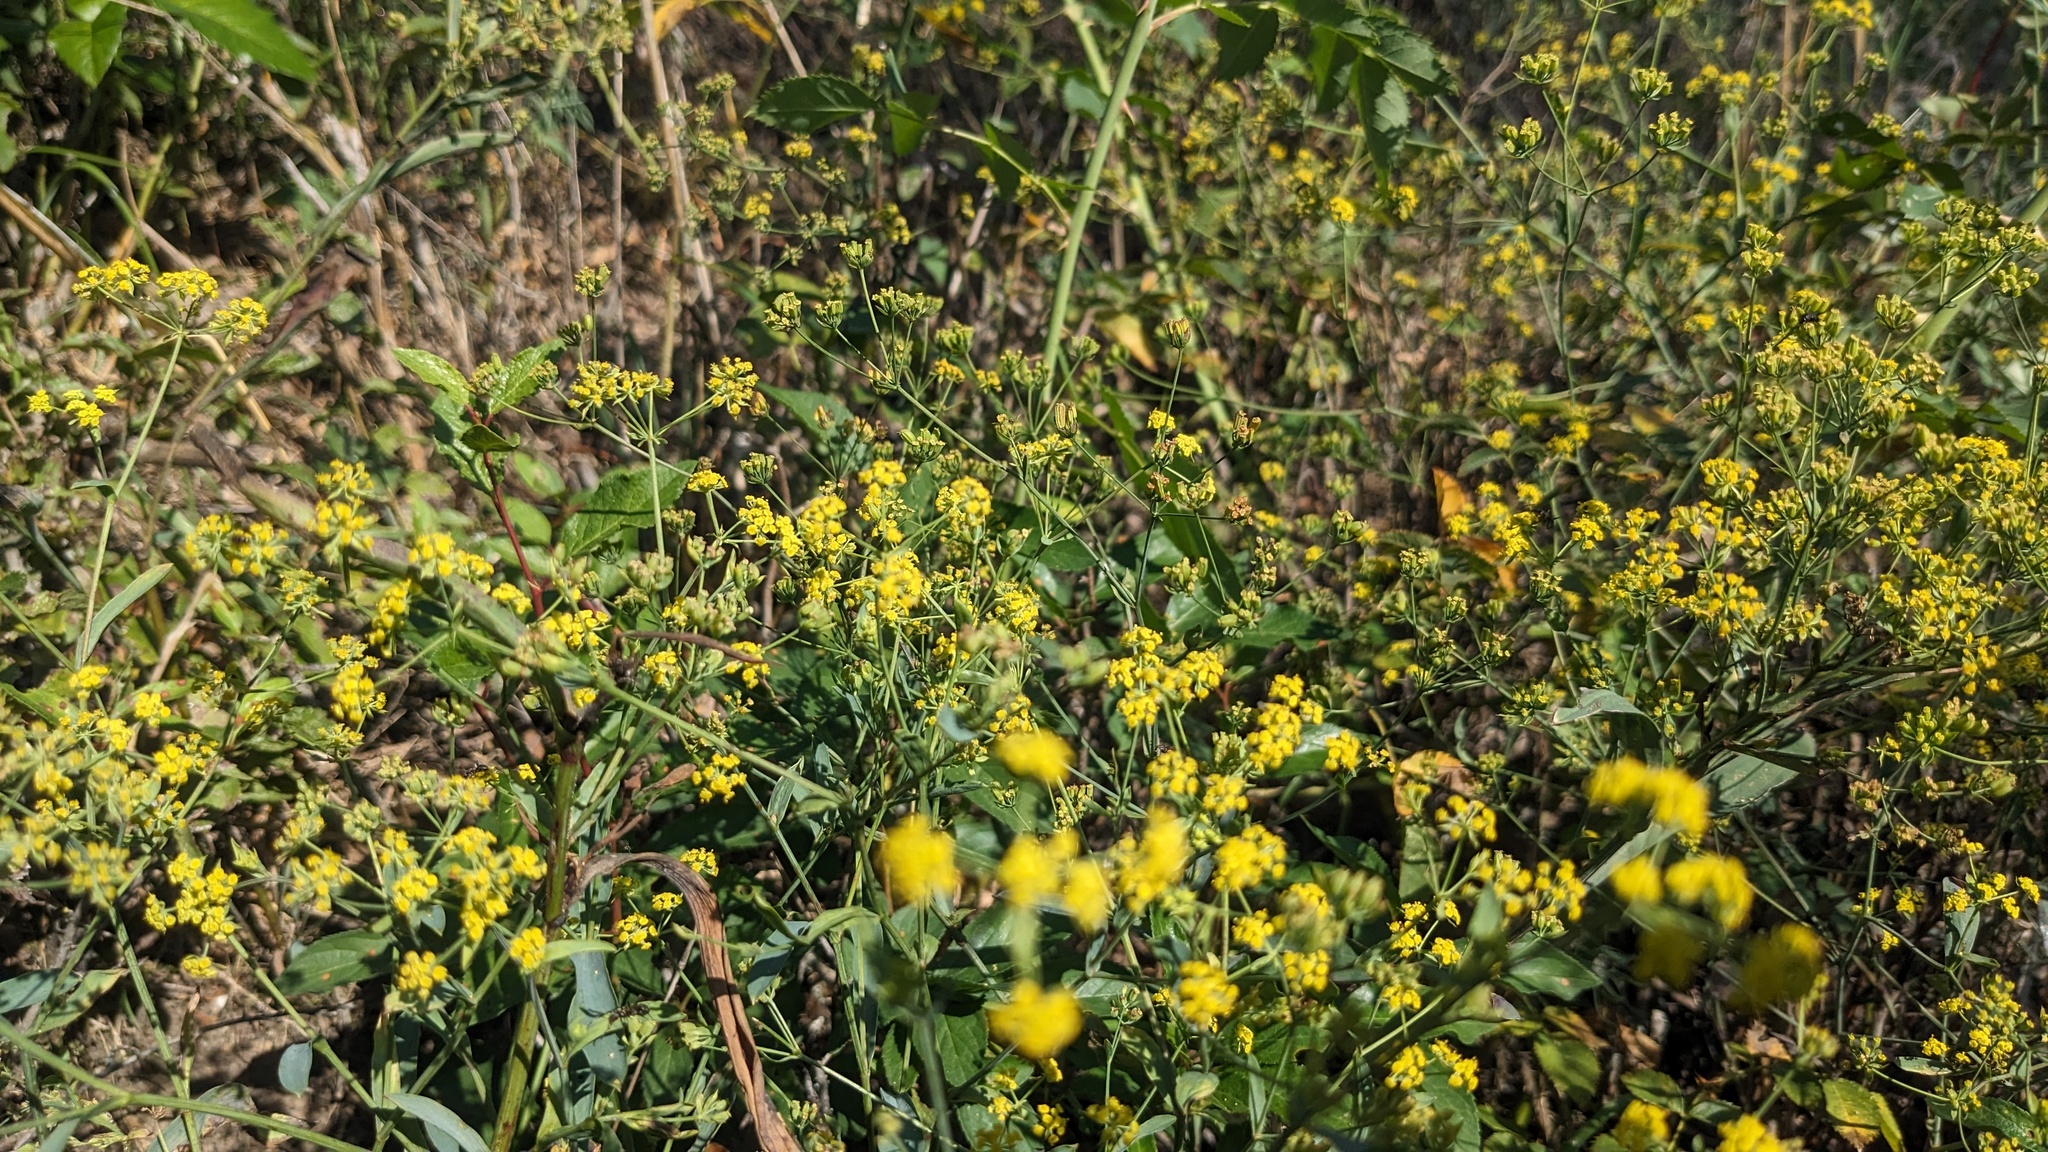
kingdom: Plantae
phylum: Tracheophyta
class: Magnoliopsida
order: Apiales
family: Apiaceae
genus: Bupleurum
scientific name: Bupleurum falcatum
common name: Sickle-leaved hare's-ear
